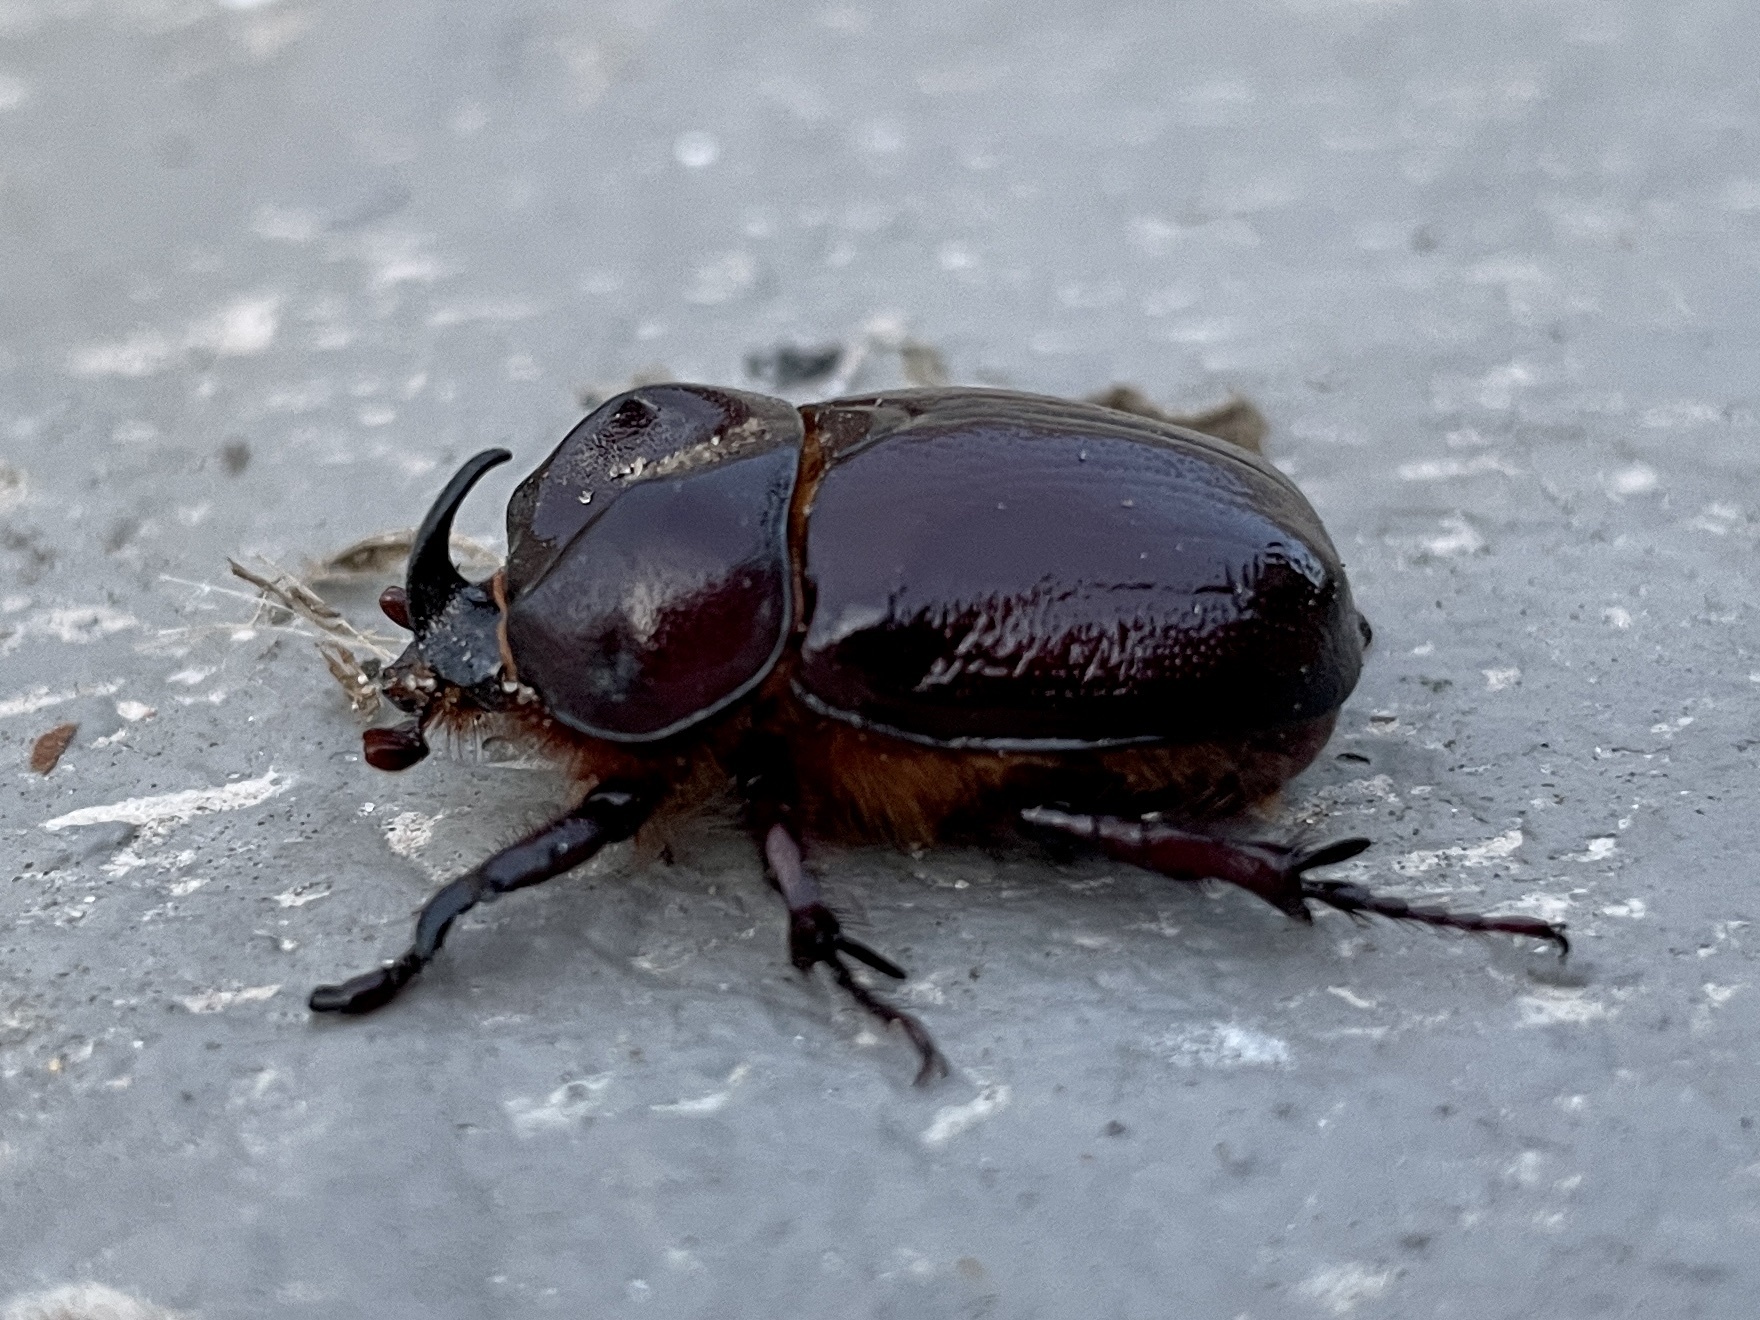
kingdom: Animalia
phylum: Arthropoda
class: Insecta
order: Coleoptera
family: Scarabaeidae
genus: Phyllognathus
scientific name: Phyllognathus excavatus
